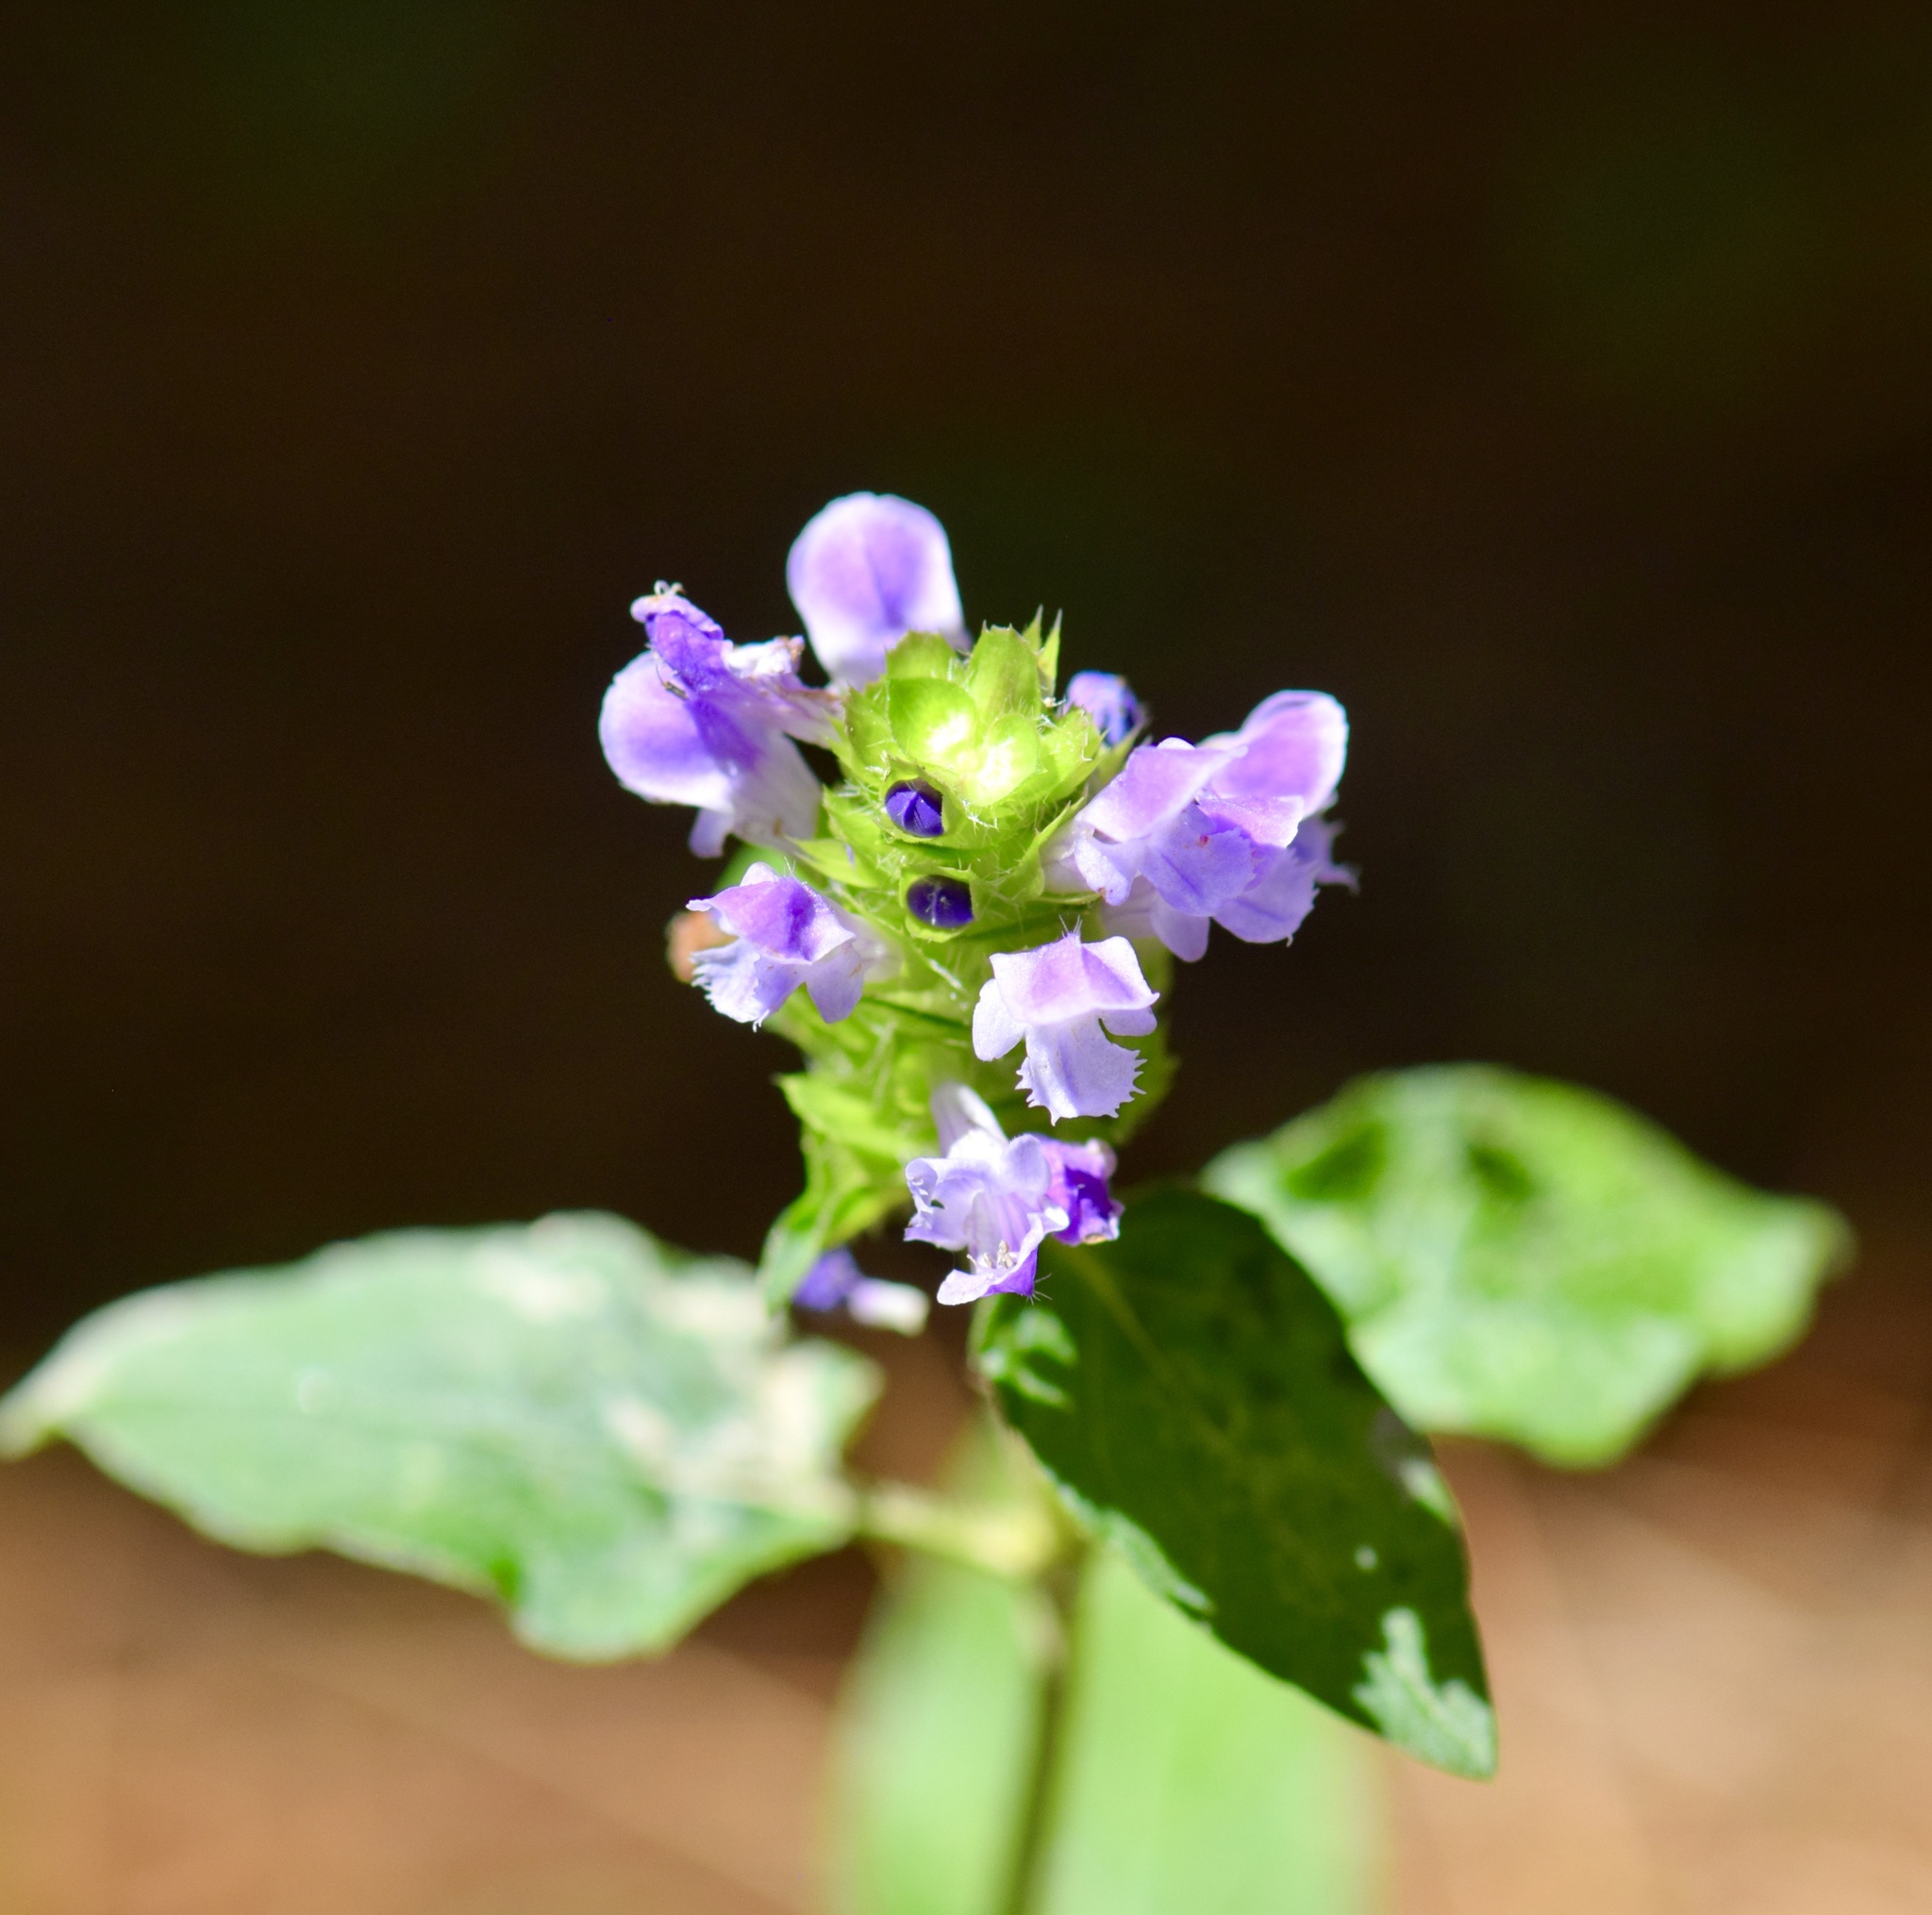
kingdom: Plantae
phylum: Tracheophyta
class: Magnoliopsida
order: Lamiales
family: Lamiaceae
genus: Prunella
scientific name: Prunella vulgaris
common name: Heal-all
